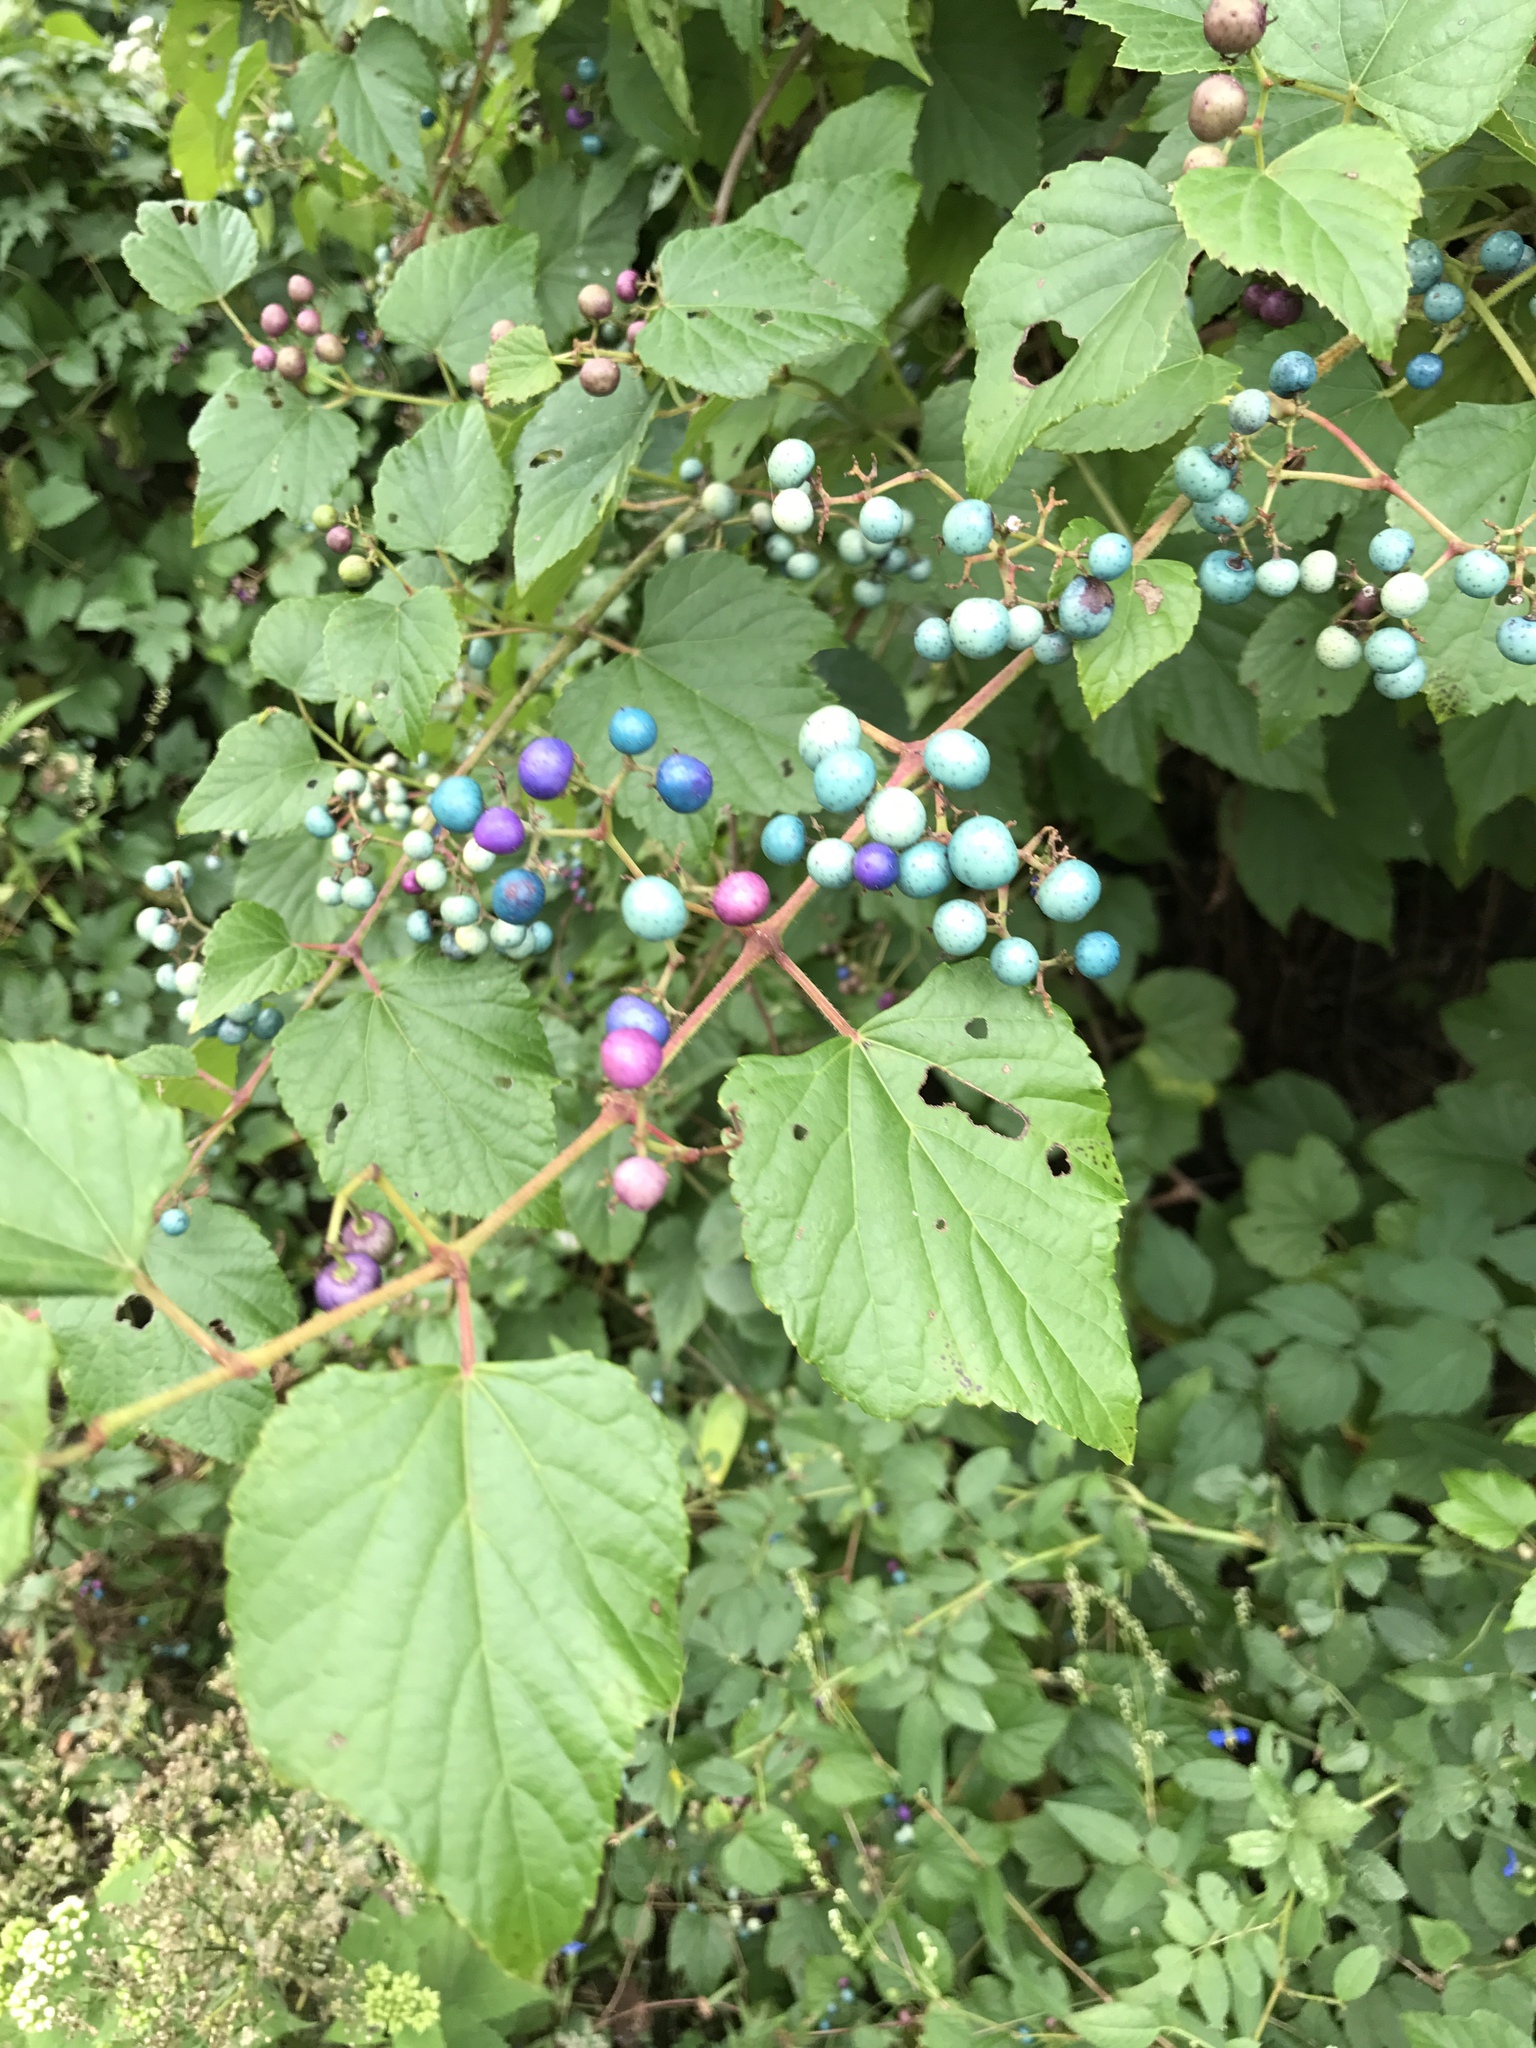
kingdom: Plantae
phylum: Tracheophyta
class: Magnoliopsida
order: Vitales
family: Vitaceae
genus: Ampelopsis
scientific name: Ampelopsis glandulosa
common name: Amur peppervine
